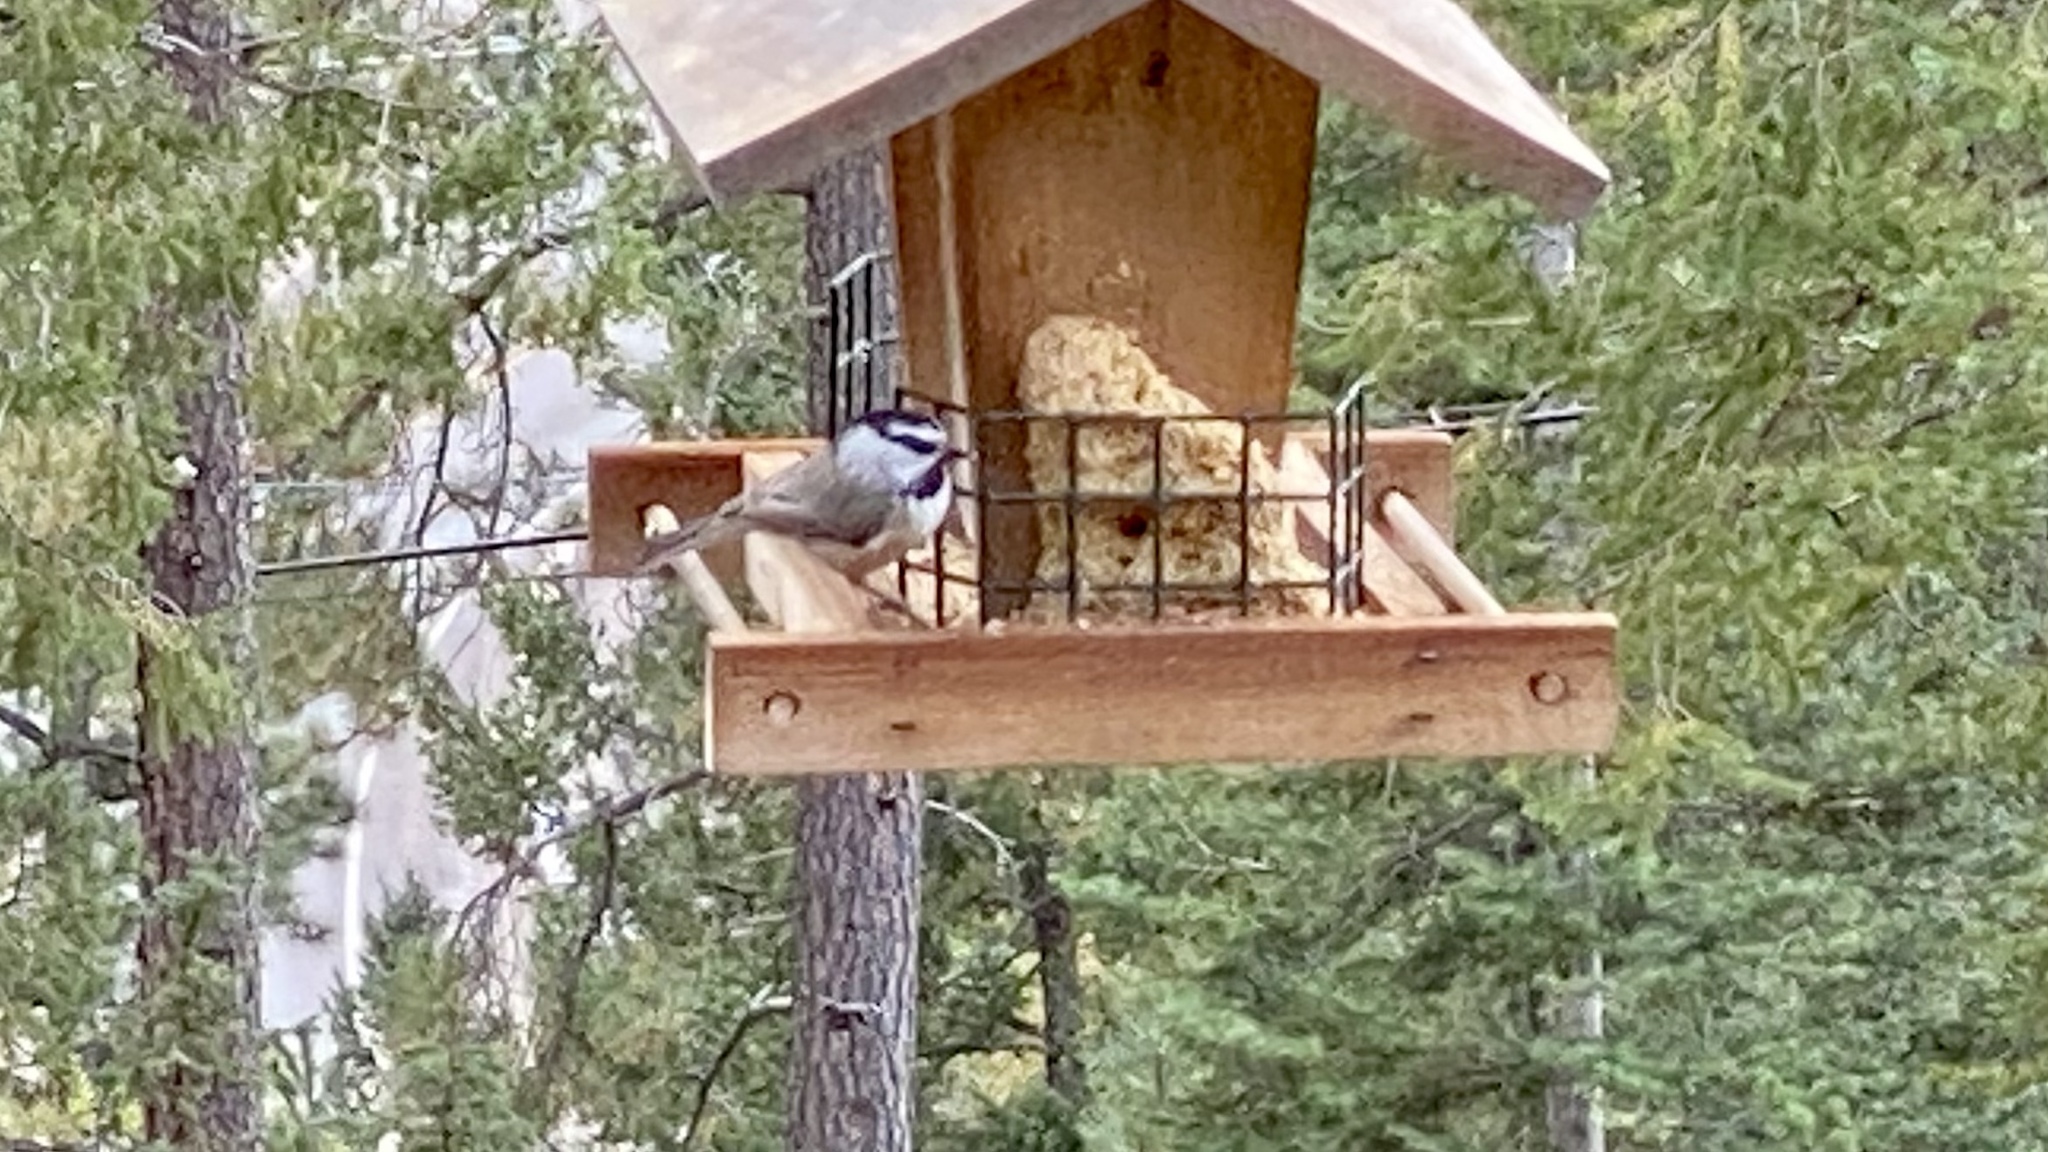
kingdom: Animalia
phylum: Chordata
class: Aves
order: Passeriformes
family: Paridae
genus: Poecile
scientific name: Poecile gambeli
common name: Mountain chickadee
